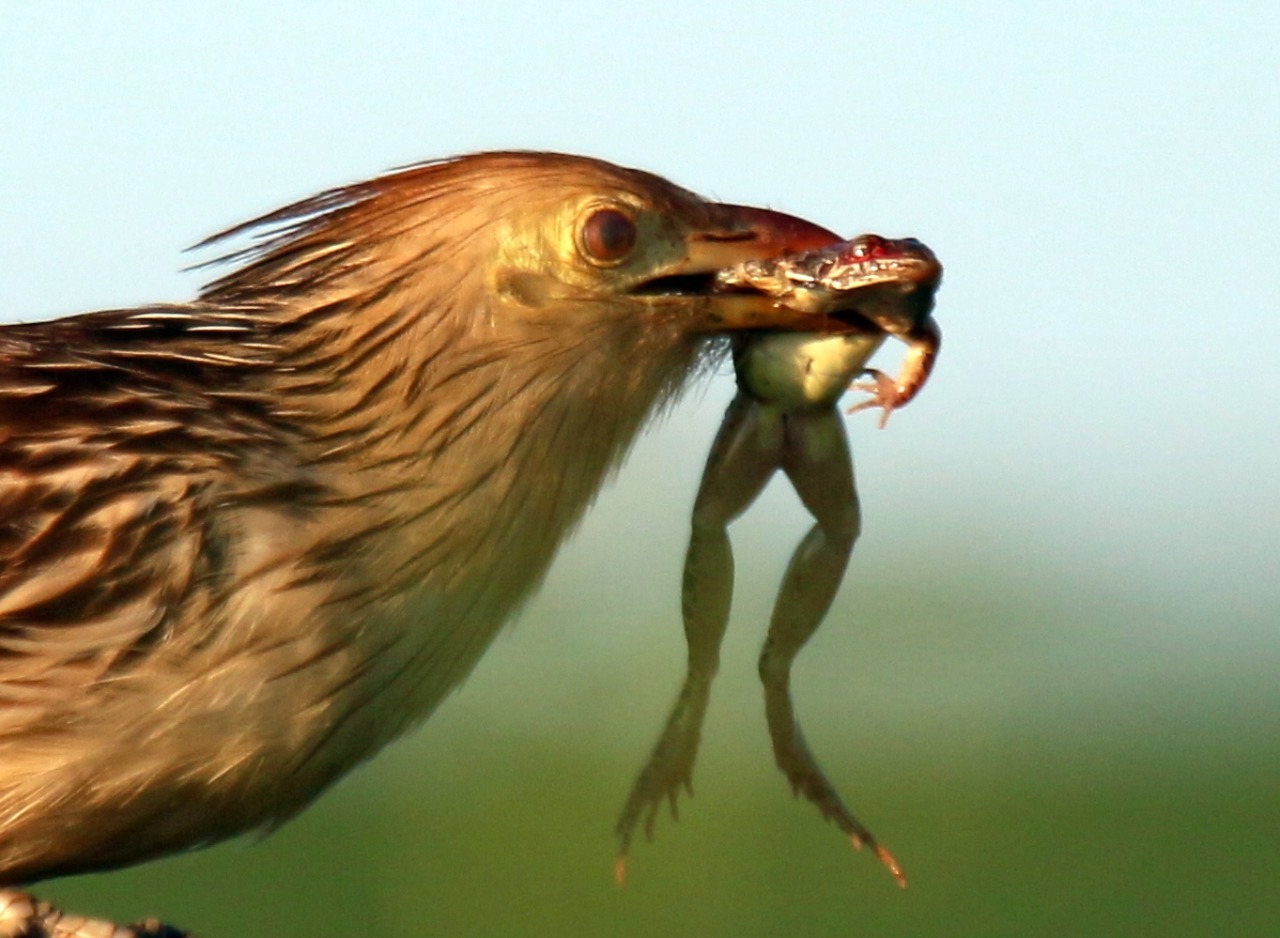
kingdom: Animalia
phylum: Chordata
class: Aves
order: Cuculiformes
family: Cuculidae
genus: Guira
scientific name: Guira guira
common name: Guira cuckoo
